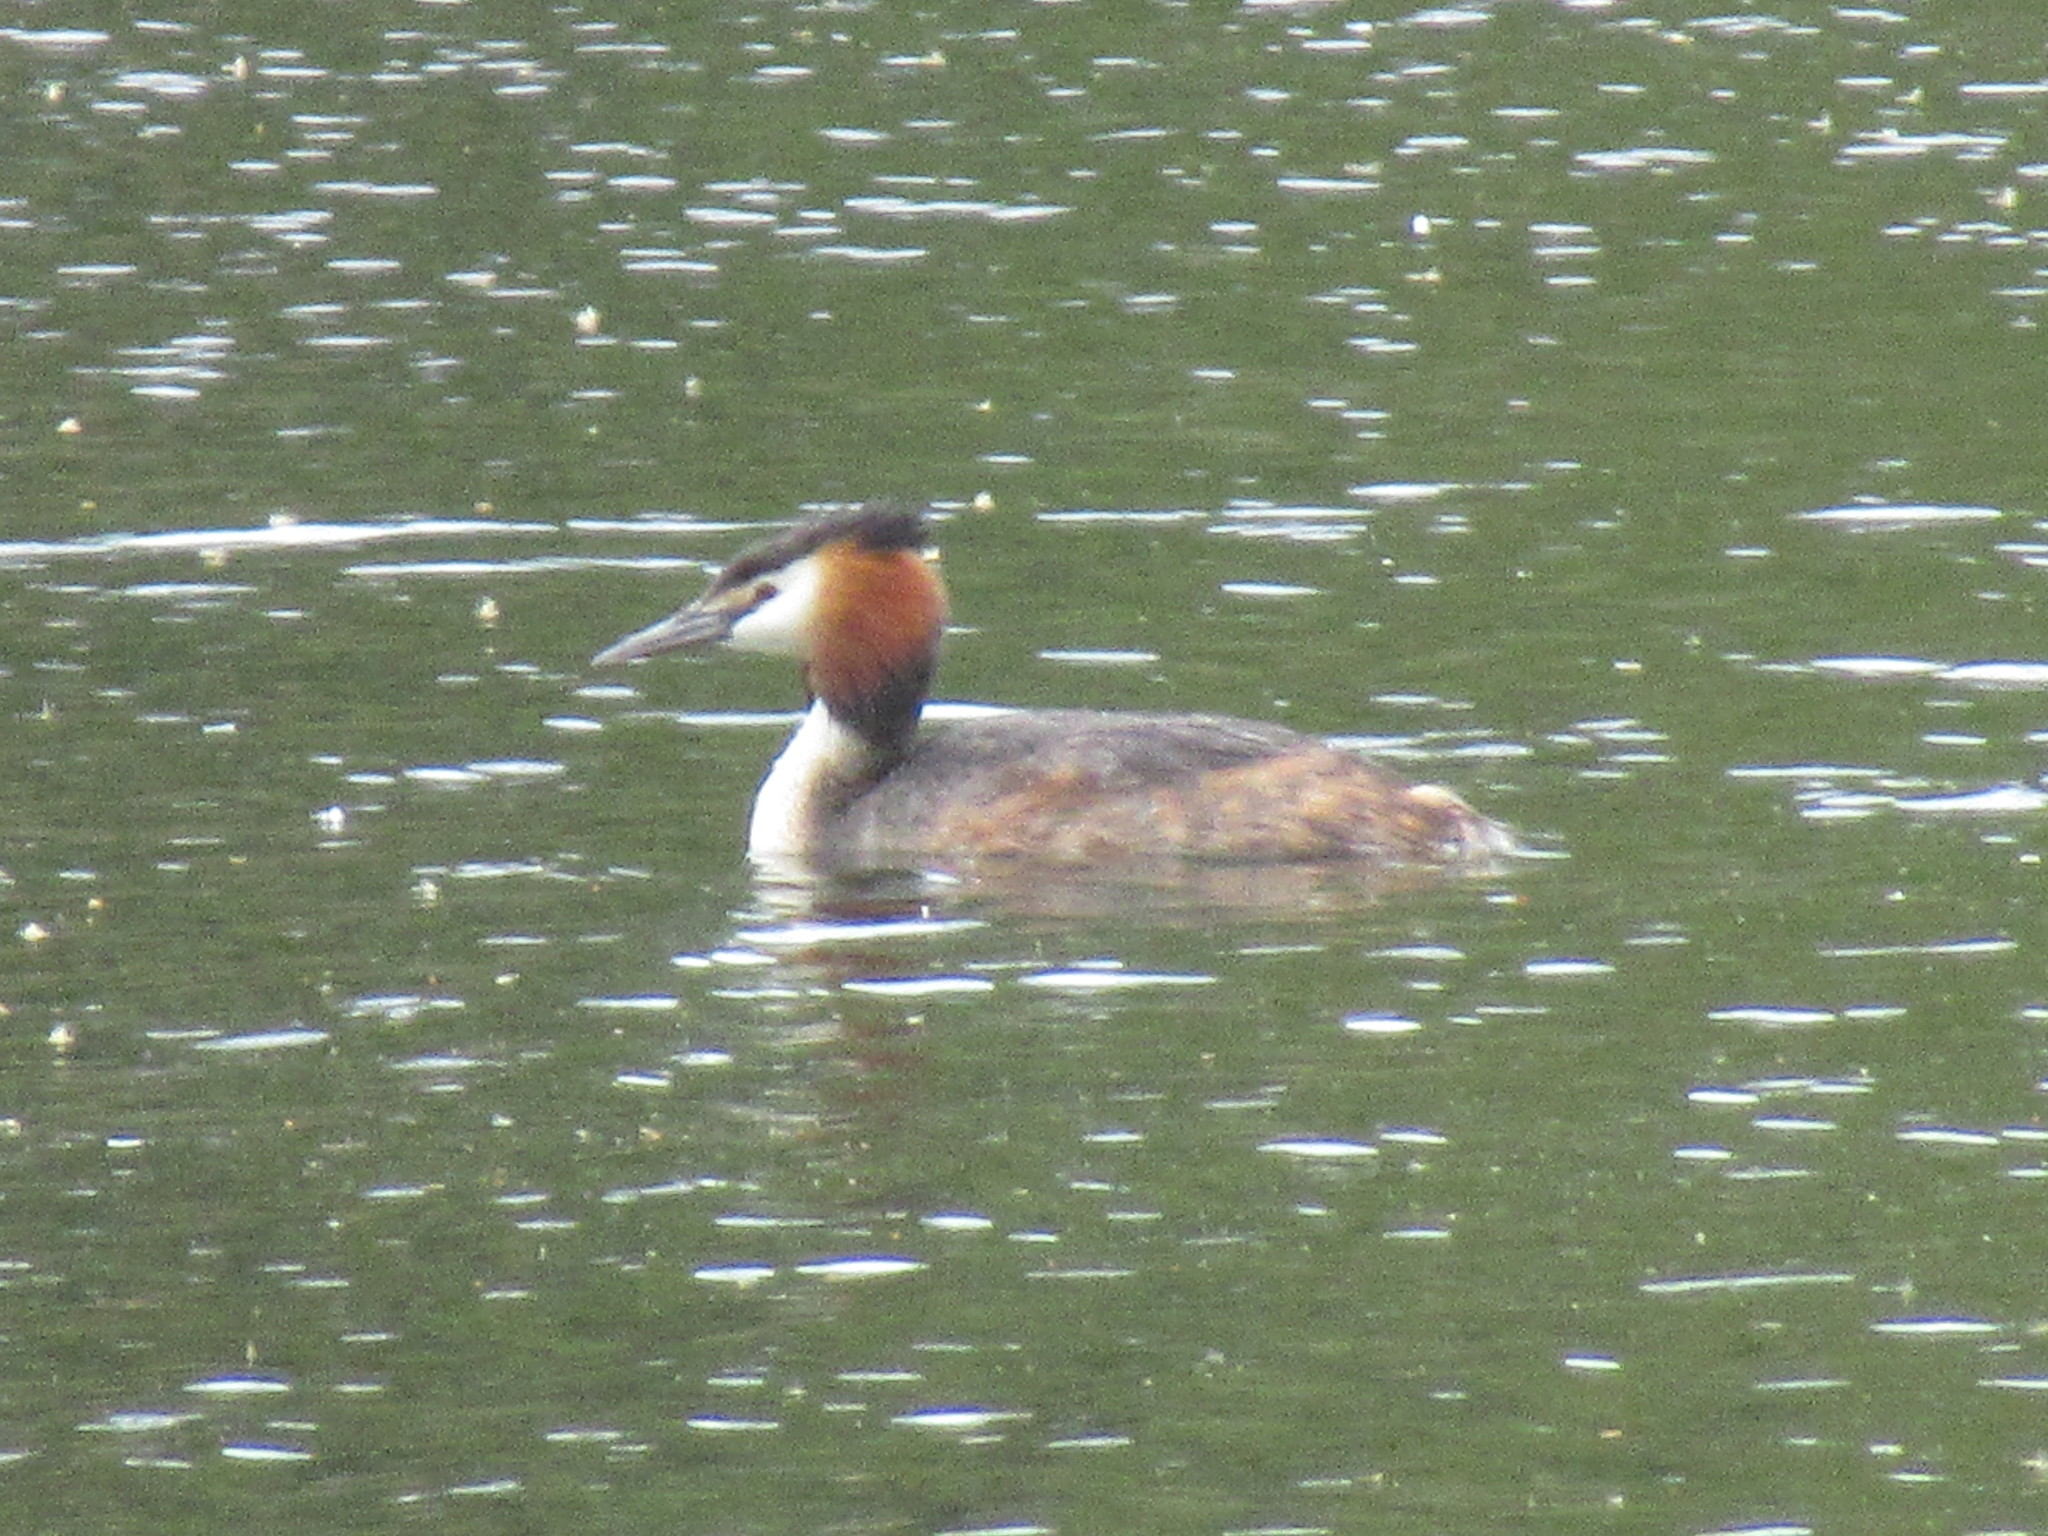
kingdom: Animalia
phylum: Chordata
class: Aves
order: Podicipediformes
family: Podicipedidae
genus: Podiceps
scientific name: Podiceps cristatus
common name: Great crested grebe
